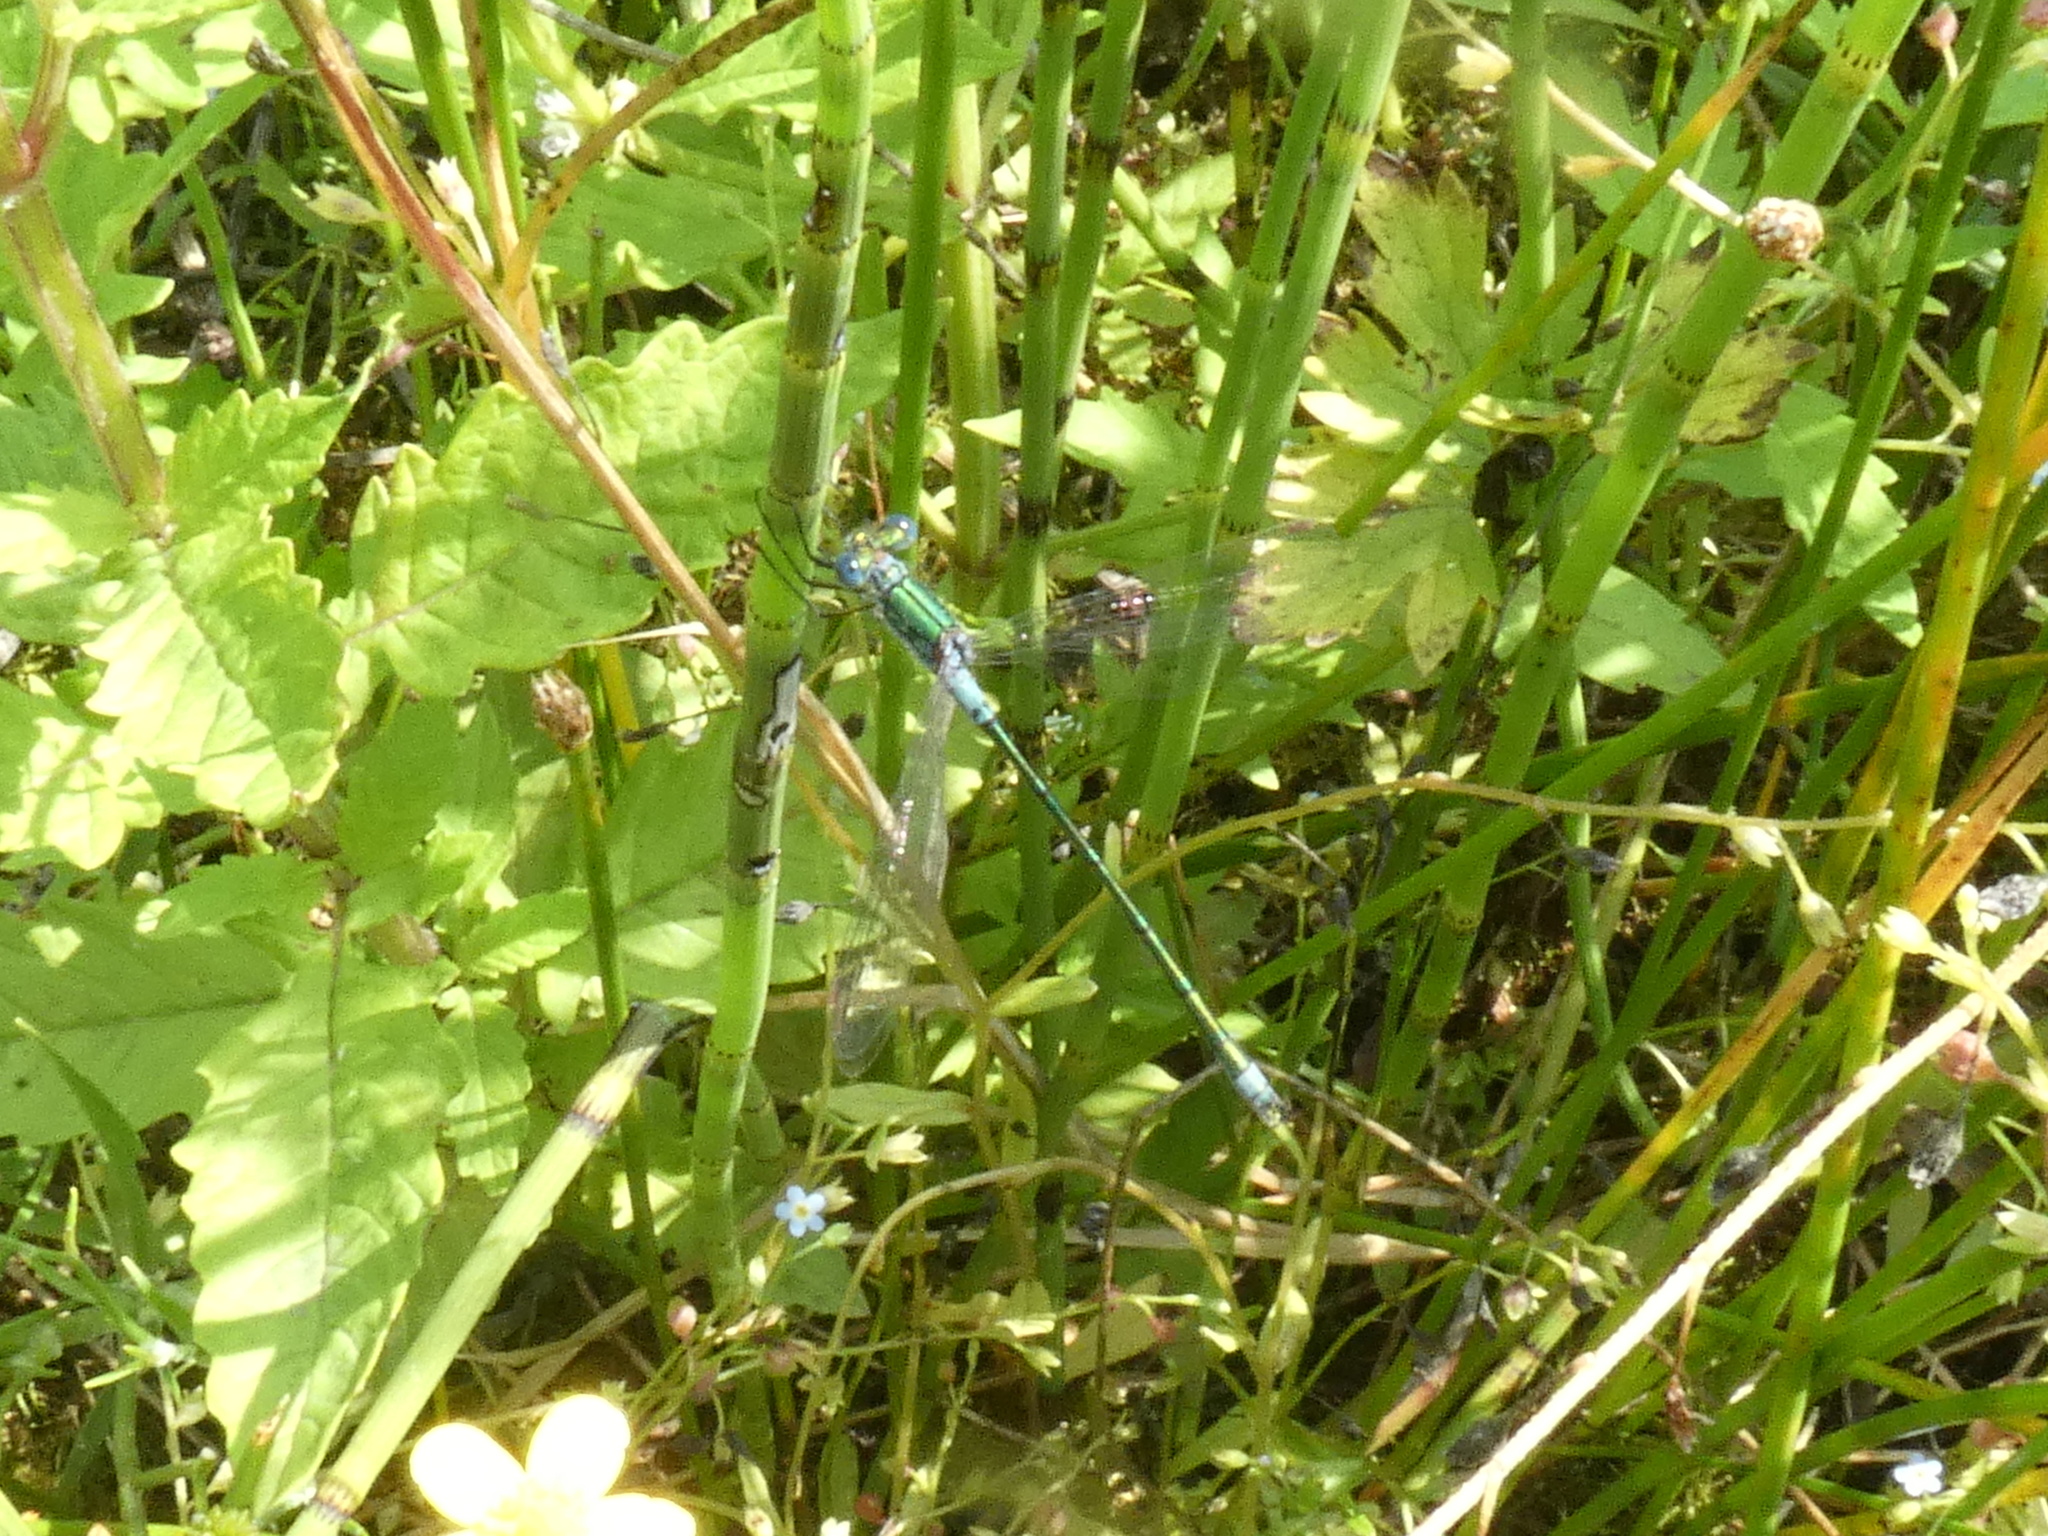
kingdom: Animalia
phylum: Arthropoda
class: Insecta
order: Odonata
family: Lestidae
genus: Lestes
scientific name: Lestes dryas
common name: Scarce emerald damselfly
